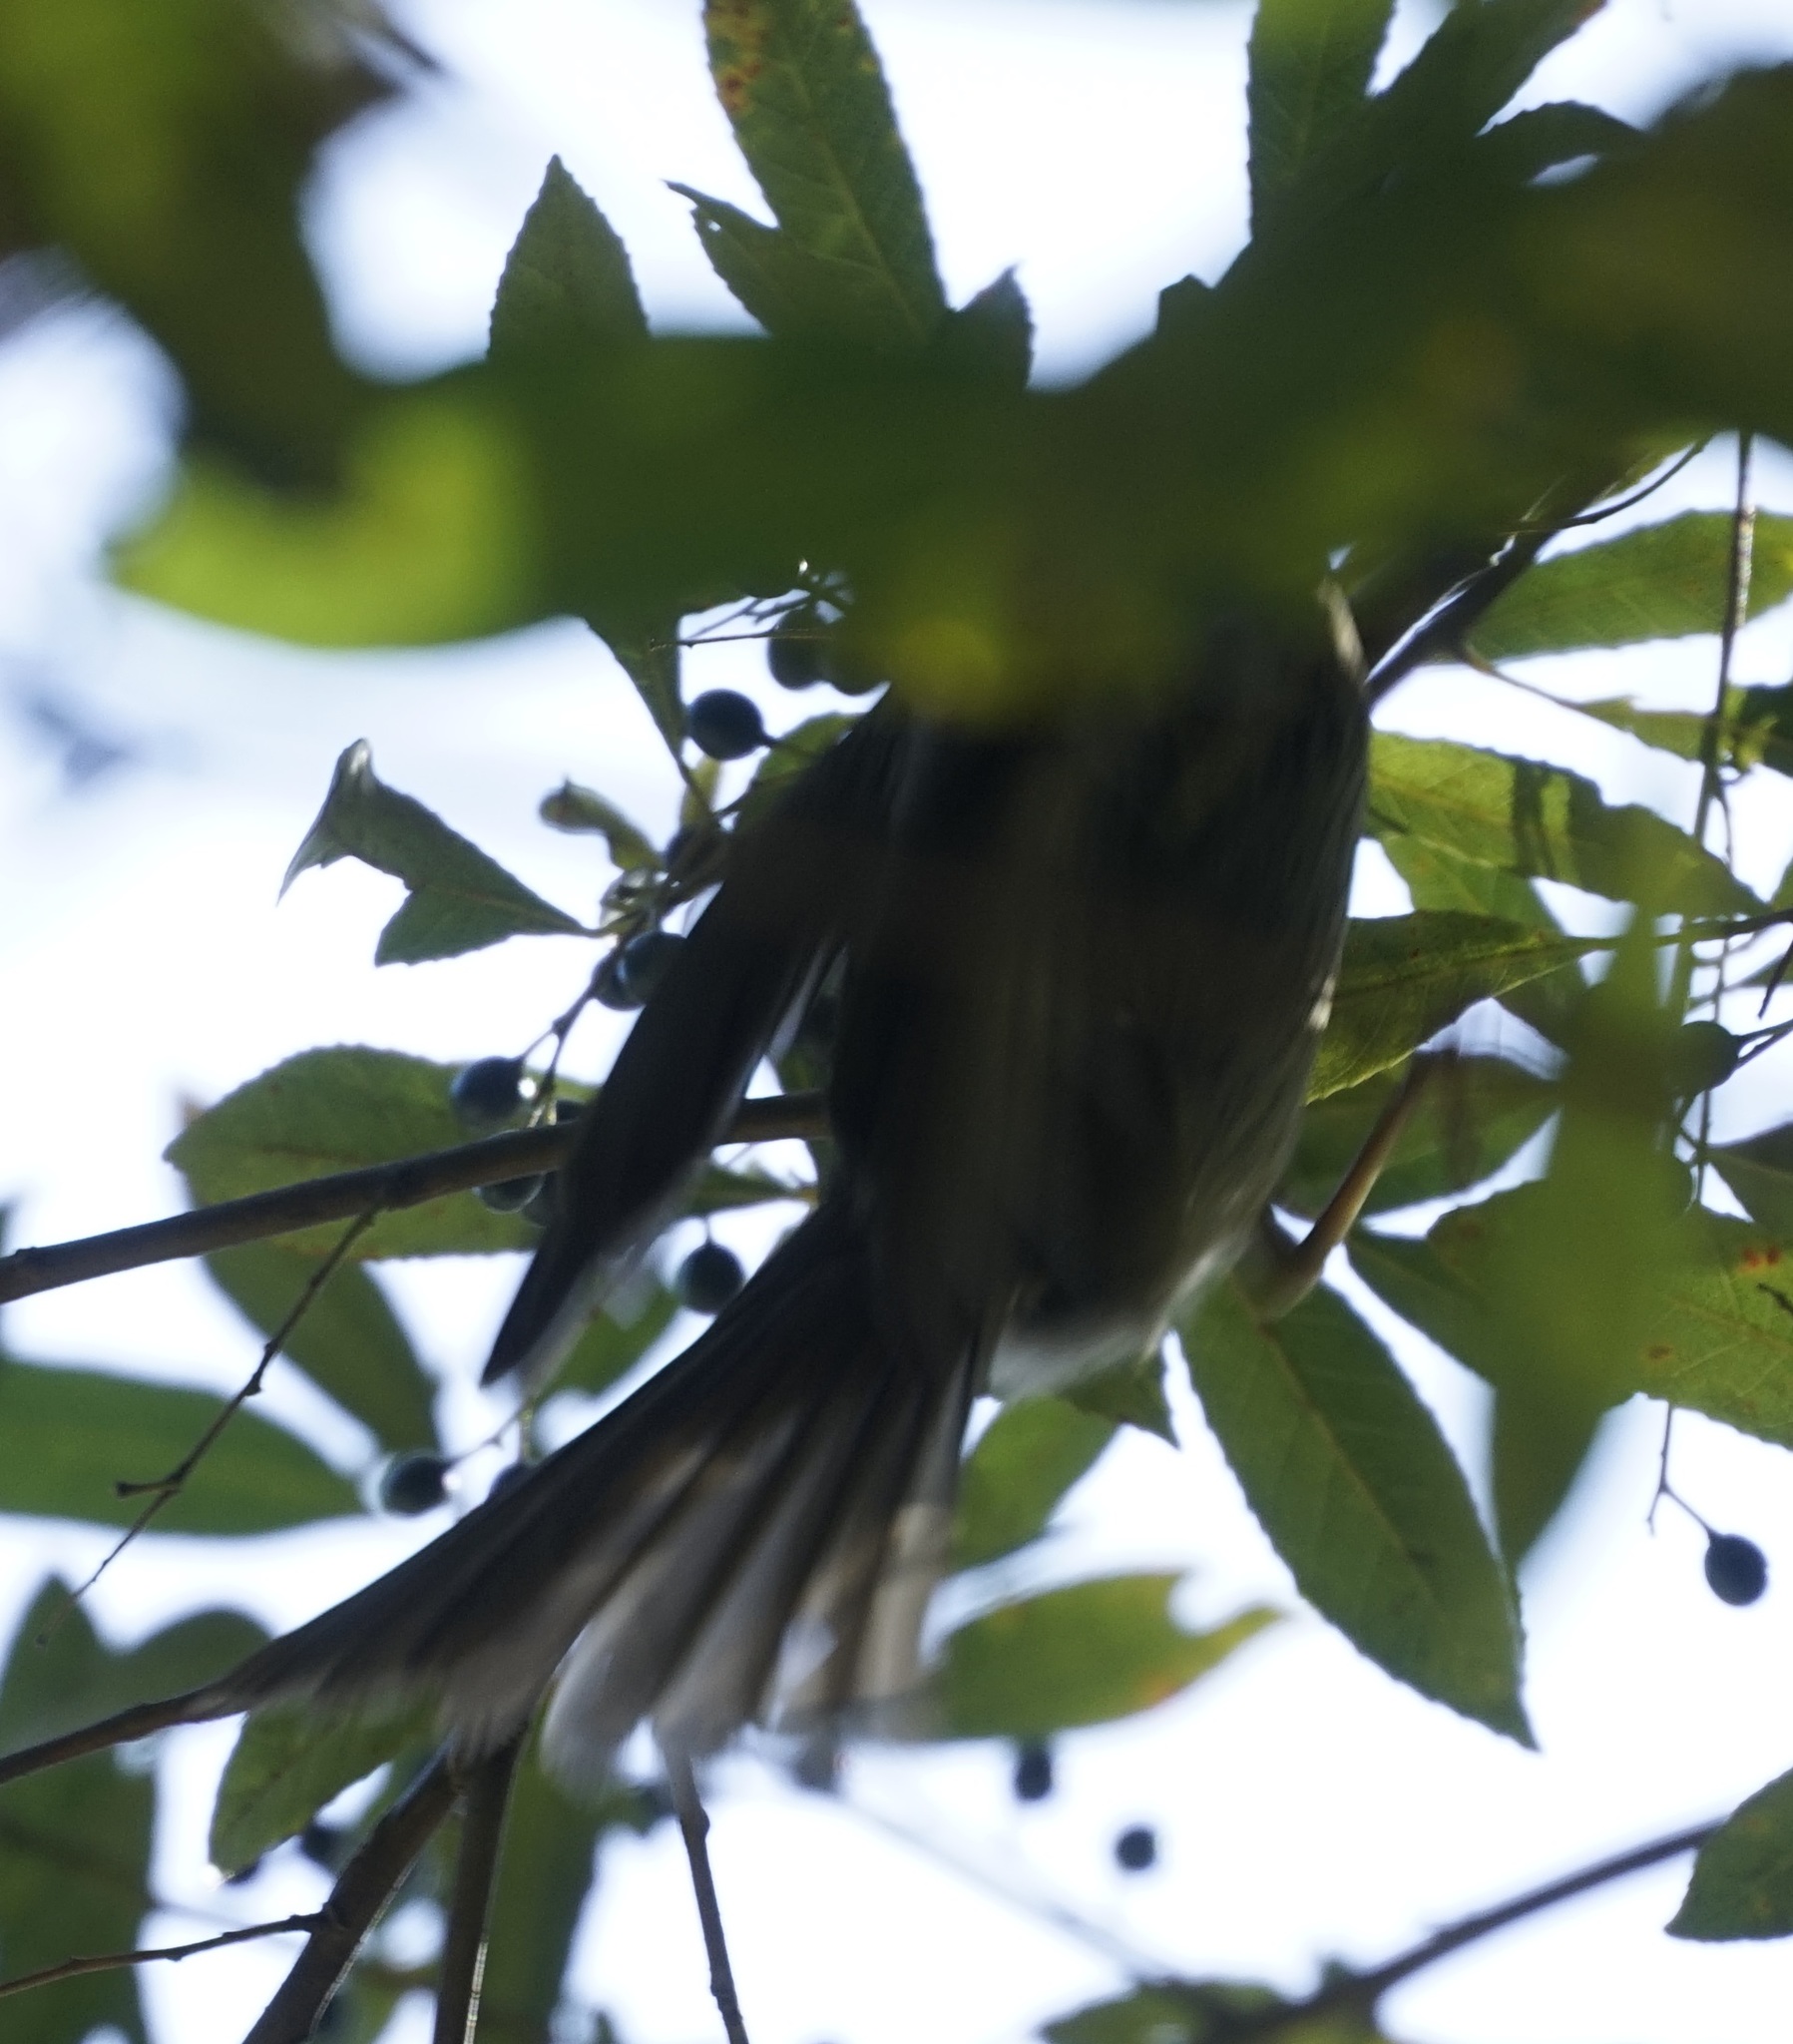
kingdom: Animalia
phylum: Chordata
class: Aves
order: Passeriformes
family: Meliphagidae
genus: Meliphaga
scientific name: Meliphaga lewinii
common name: Lewin's honeyeater
